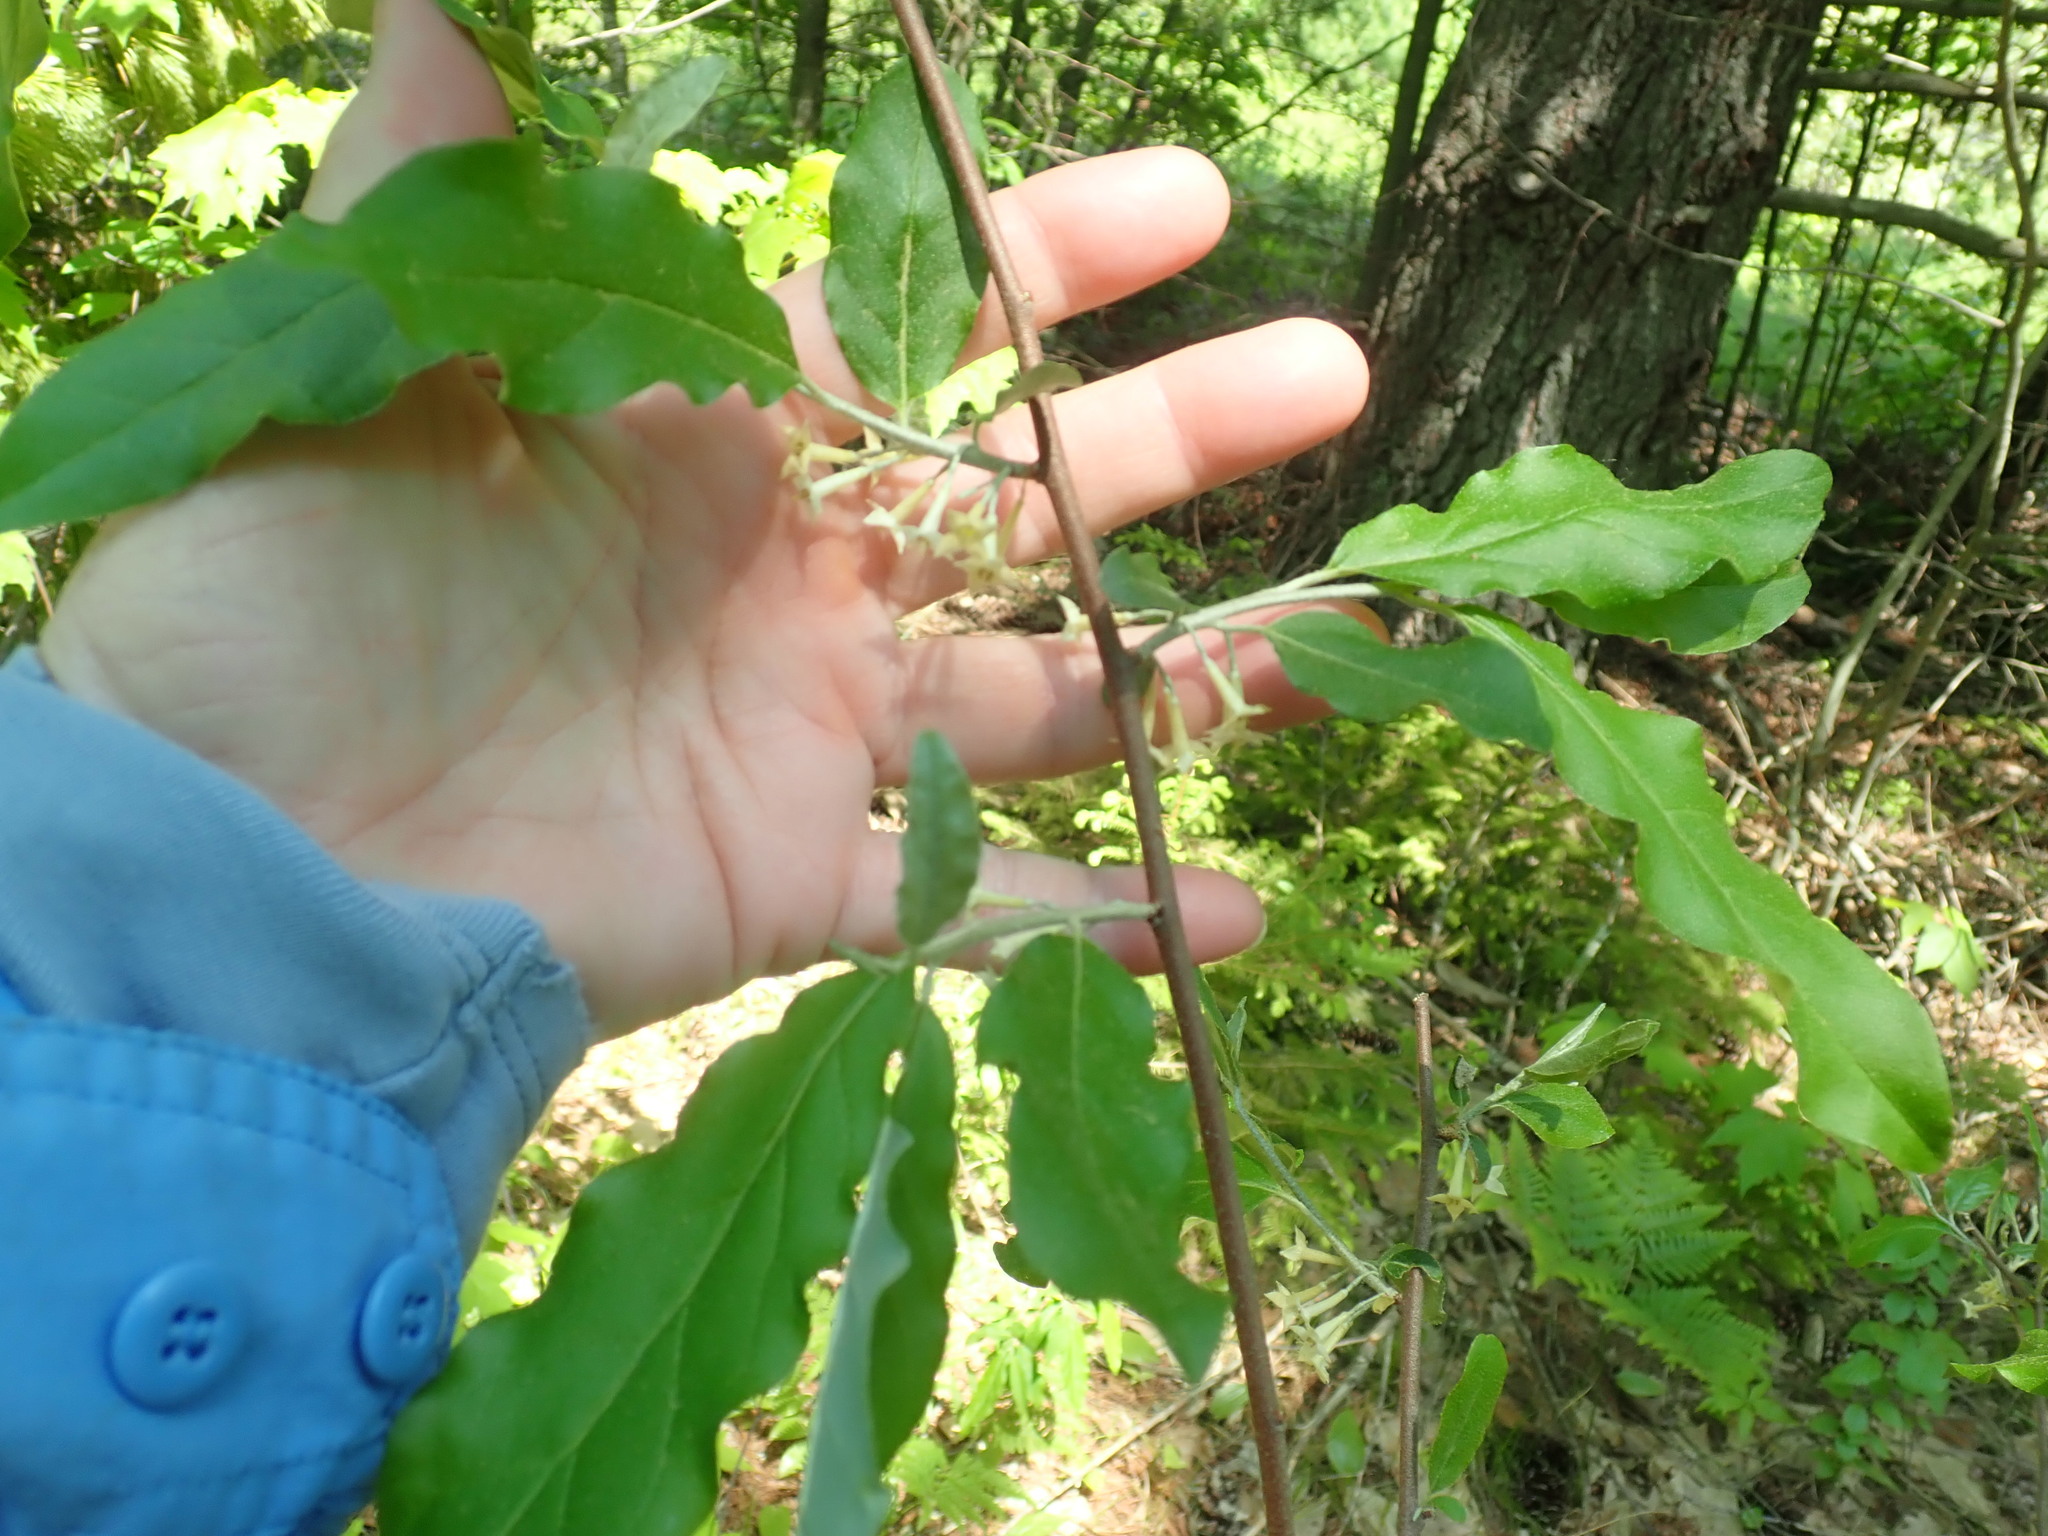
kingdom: Plantae
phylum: Tracheophyta
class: Magnoliopsida
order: Rosales
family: Elaeagnaceae
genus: Elaeagnus
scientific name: Elaeagnus umbellata
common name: Autumn olive
